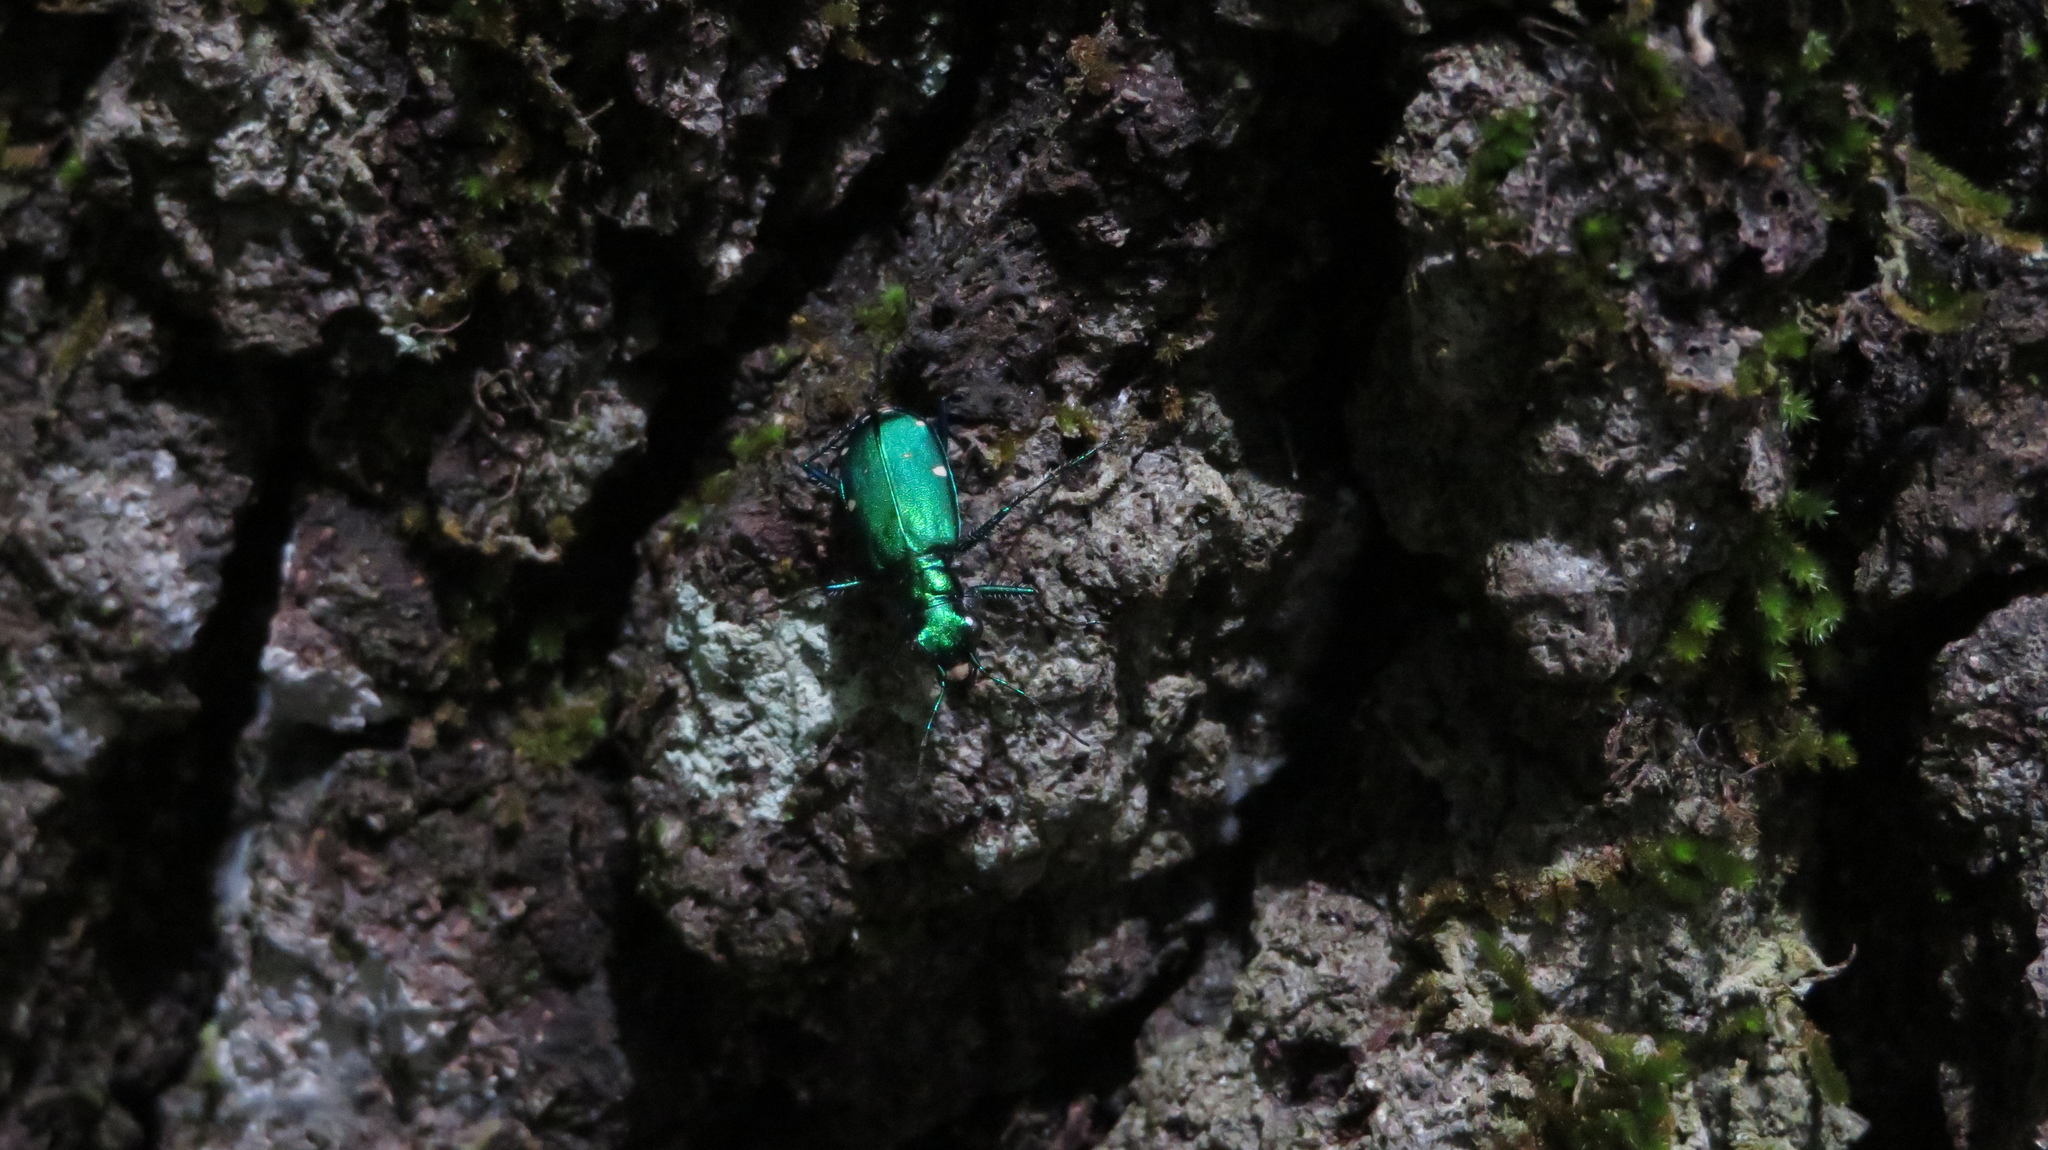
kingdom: Animalia
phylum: Arthropoda
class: Insecta
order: Coleoptera
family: Carabidae
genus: Cicindela
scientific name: Cicindela sexguttata
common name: Six-spotted tiger beetle
